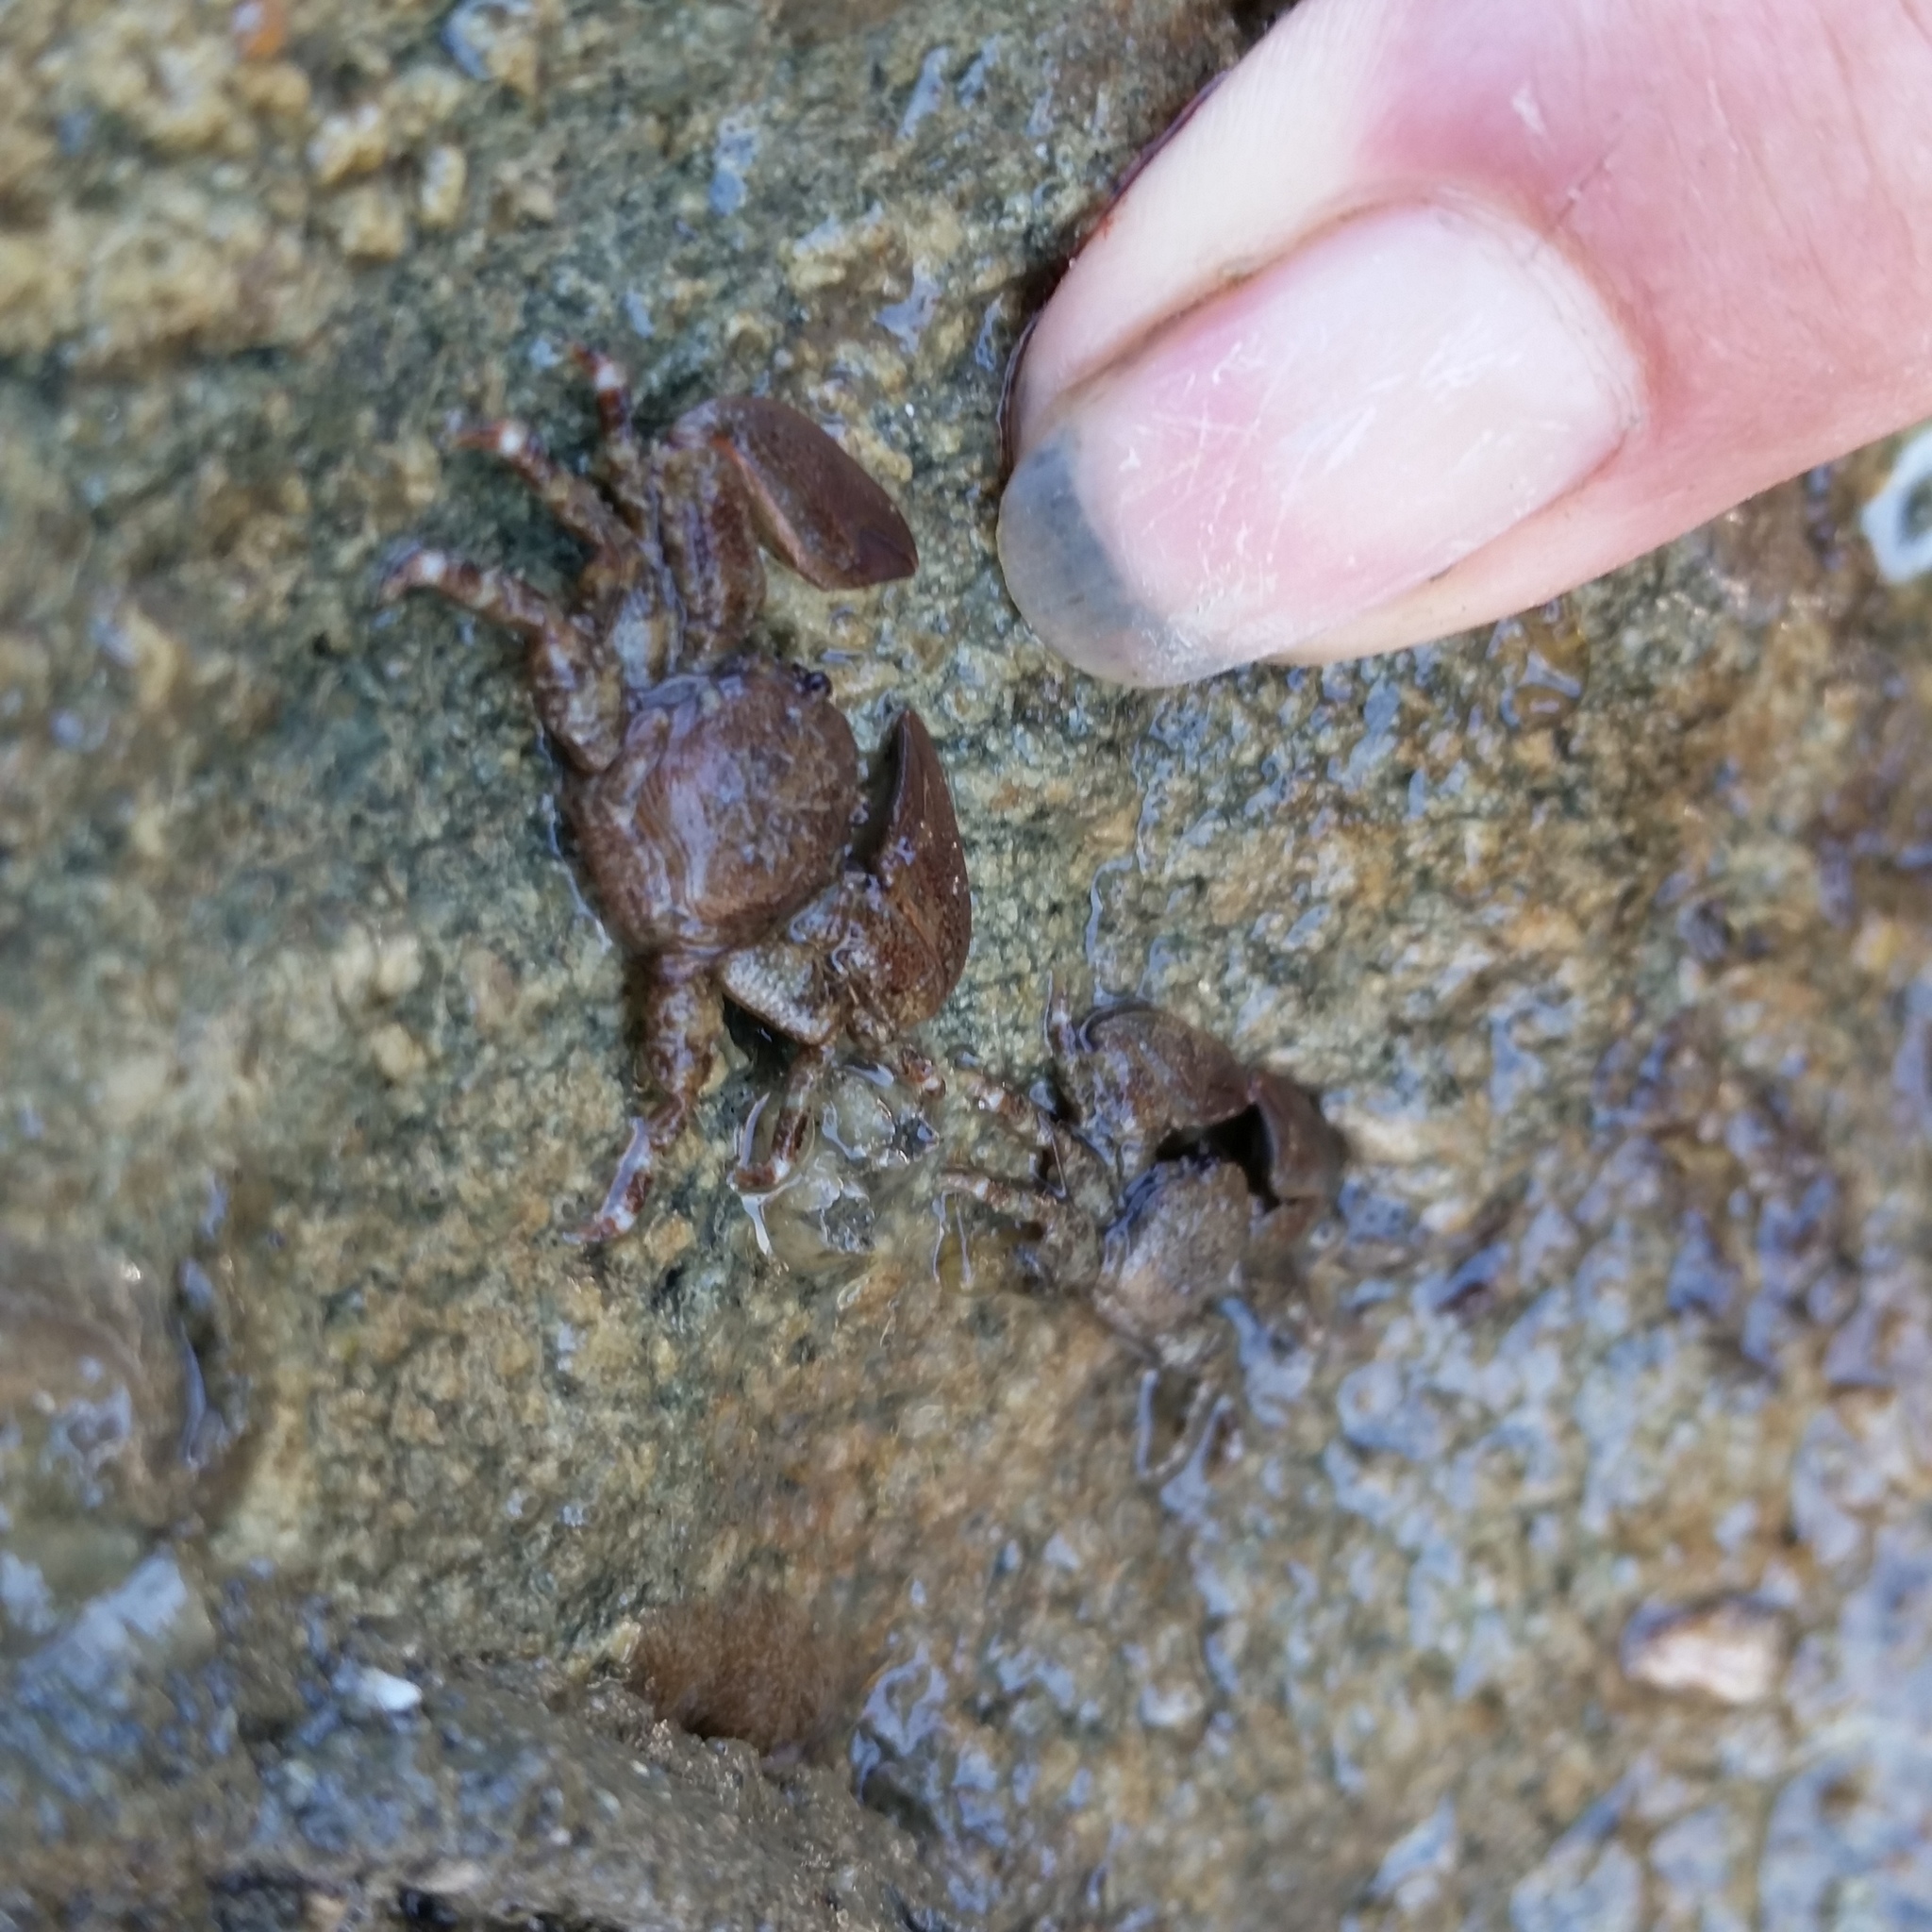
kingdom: Animalia
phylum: Arthropoda
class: Malacostraca
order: Decapoda
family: Porcellanidae
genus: Petrolisthes
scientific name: Petrolisthes eriomerus
